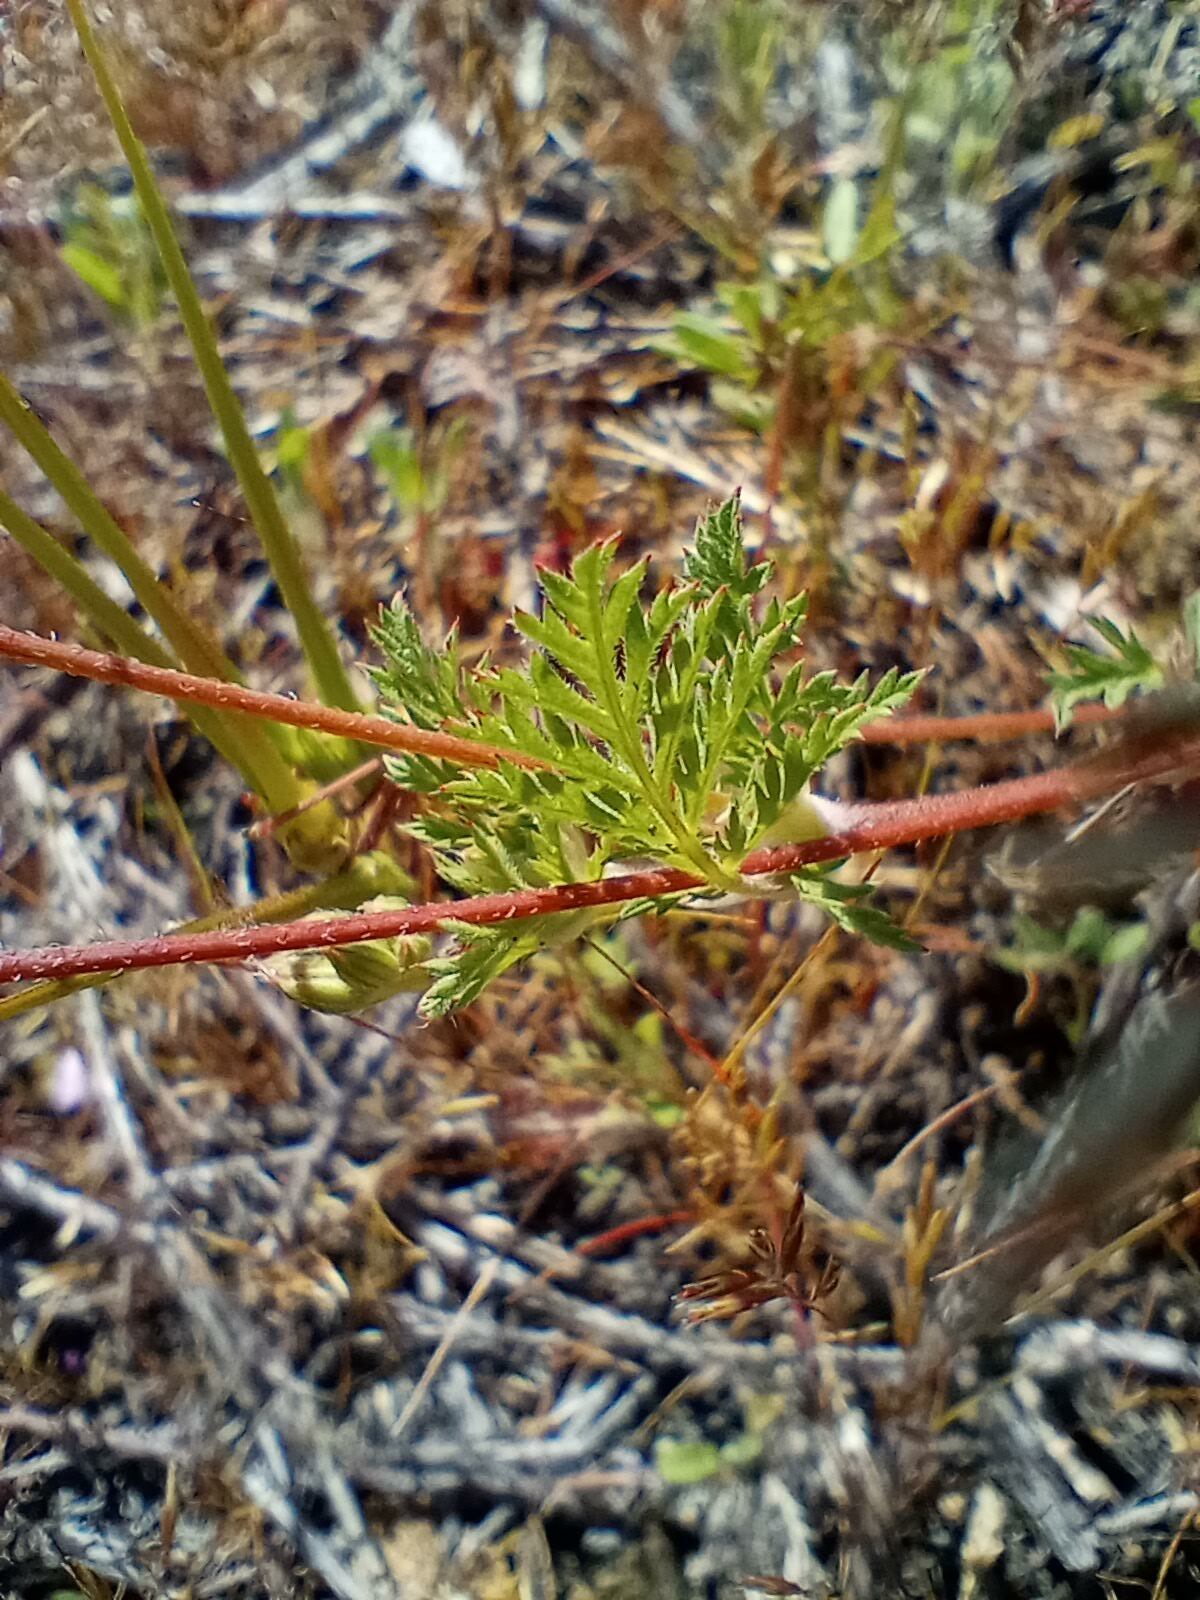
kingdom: Plantae
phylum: Tracheophyta
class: Magnoliopsida
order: Geraniales
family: Geraniaceae
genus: Erodium
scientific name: Erodium cicutarium
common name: Common stork's-bill
